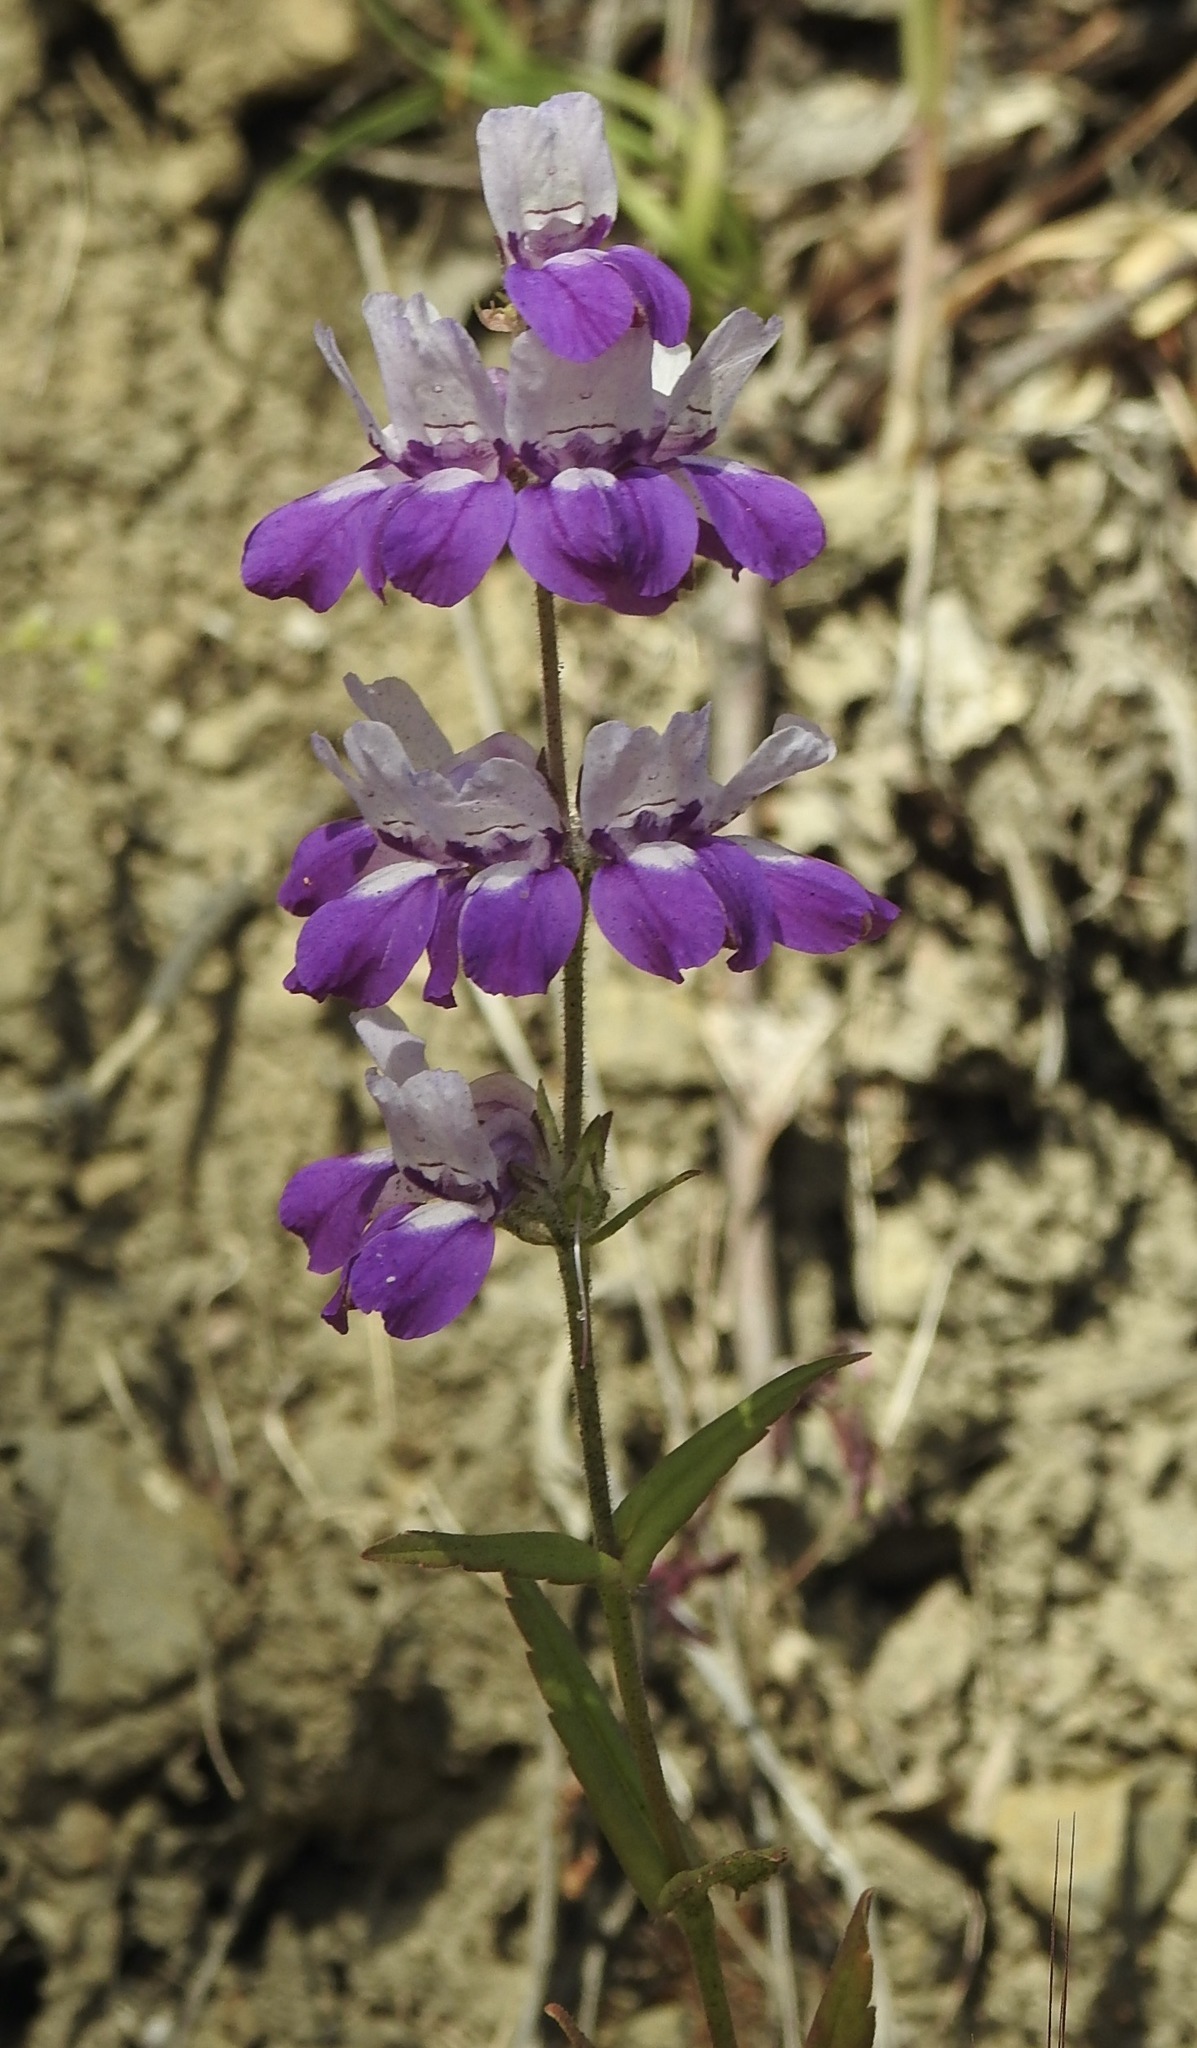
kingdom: Plantae
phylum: Tracheophyta
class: Magnoliopsida
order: Lamiales
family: Plantaginaceae
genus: Collinsia
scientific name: Collinsia heterophylla
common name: Chinese-houses
